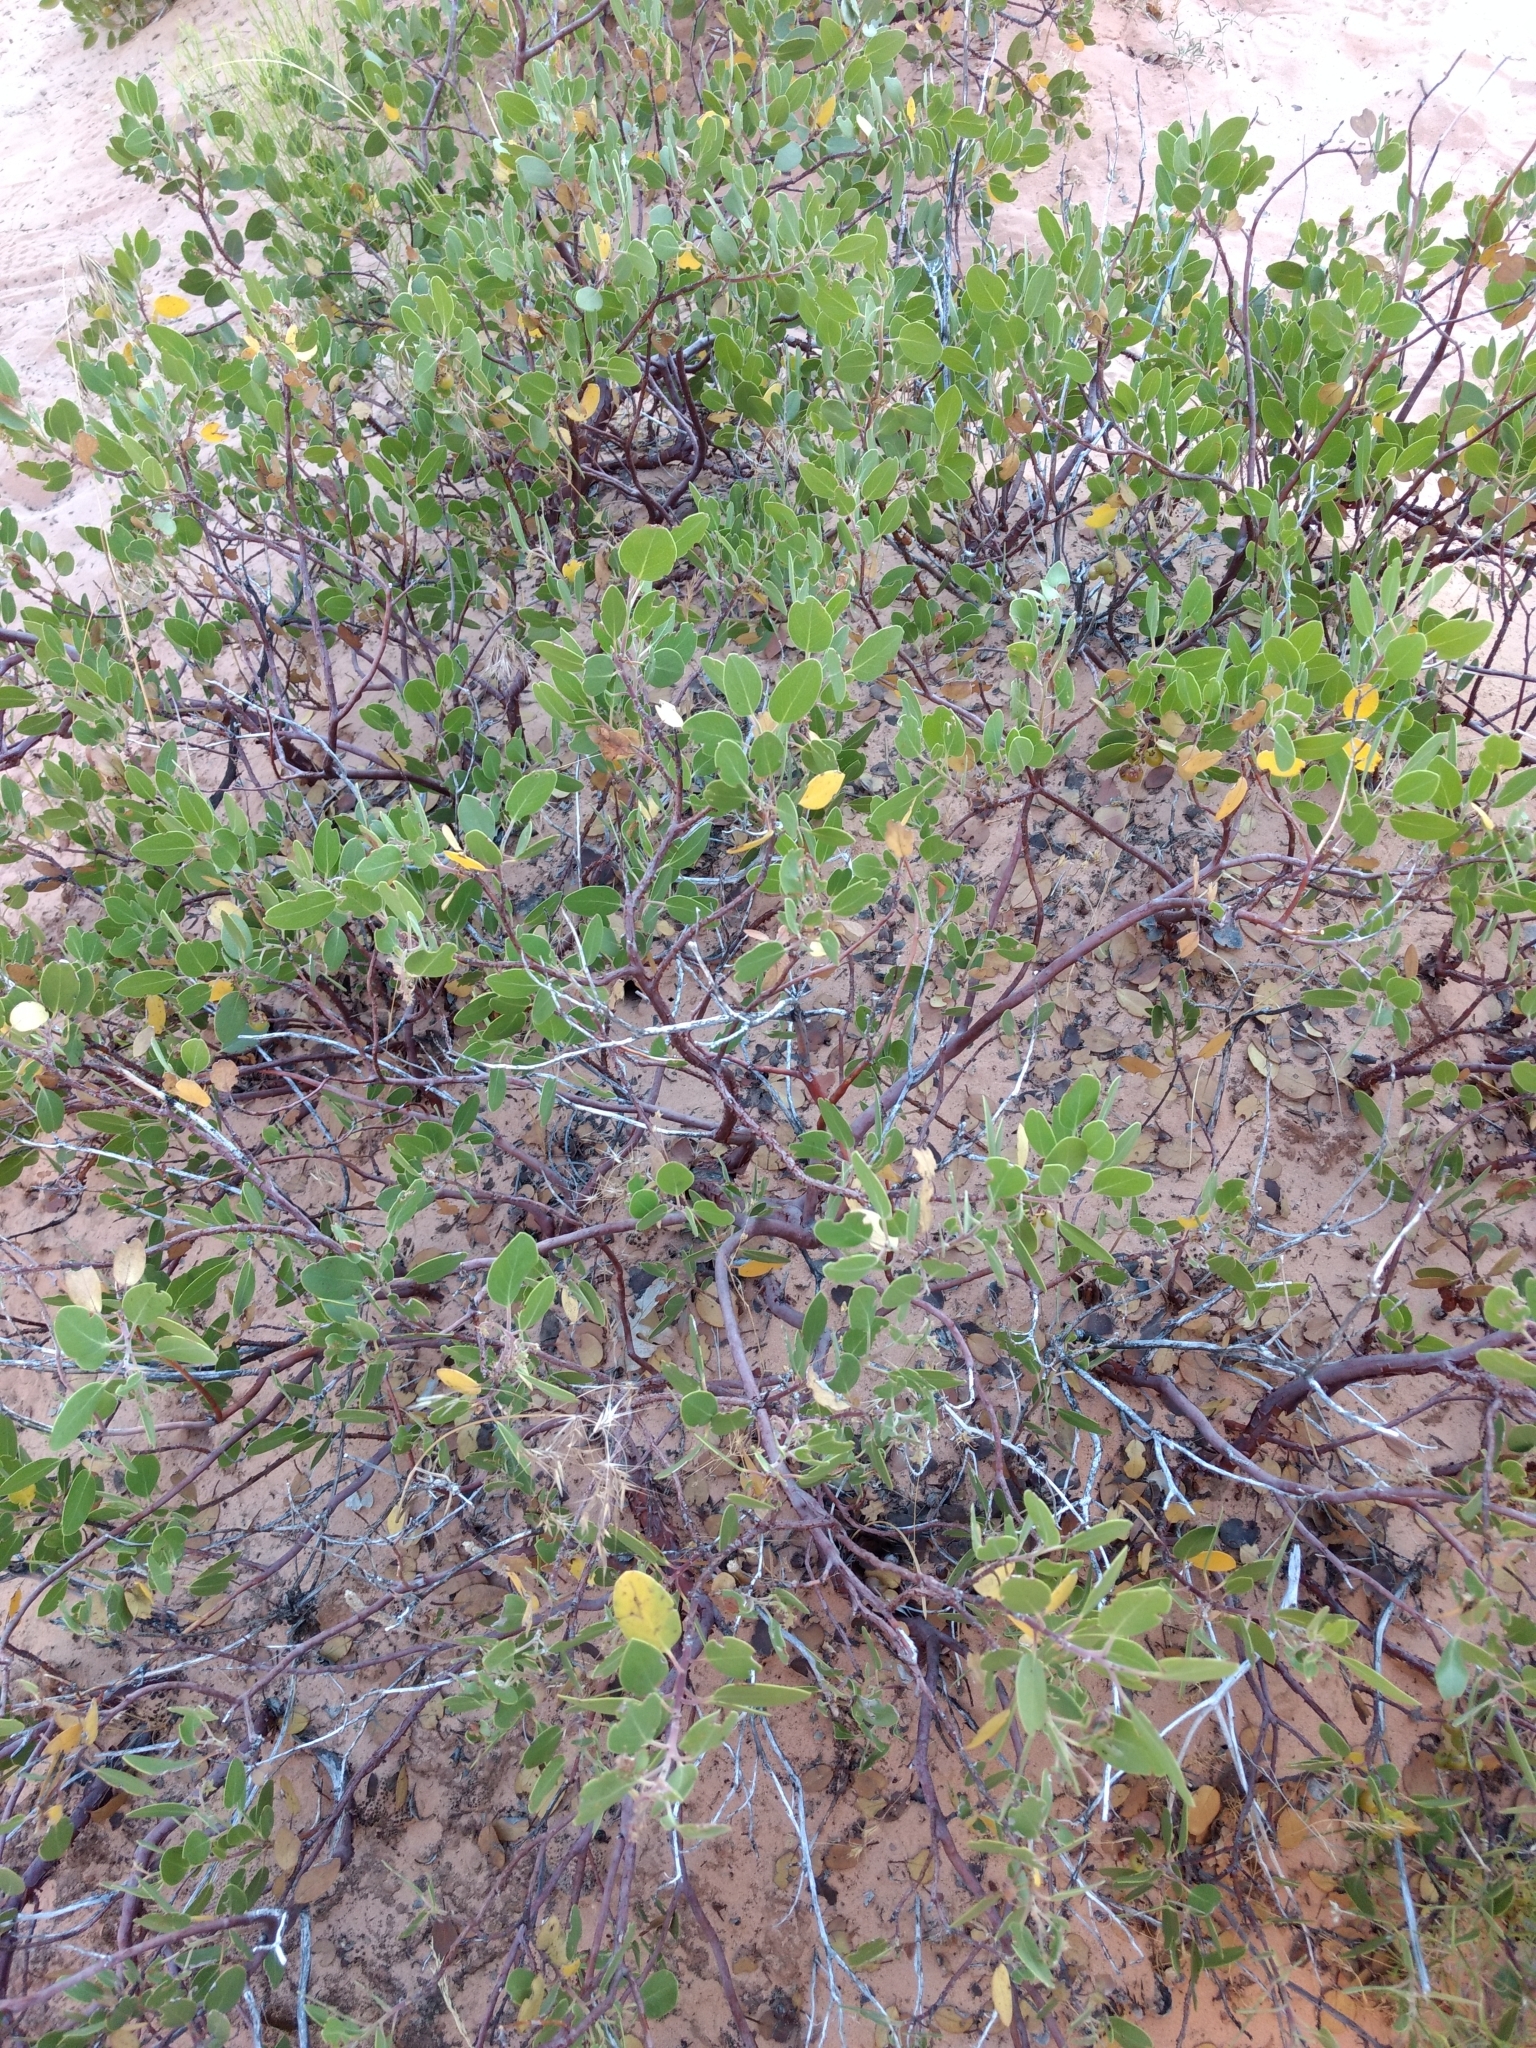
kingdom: Plantae
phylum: Tracheophyta
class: Magnoliopsida
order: Ericales
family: Ericaceae
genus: Arctostaphylos
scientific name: Arctostaphylos patula
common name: Green-leaf manzanita
